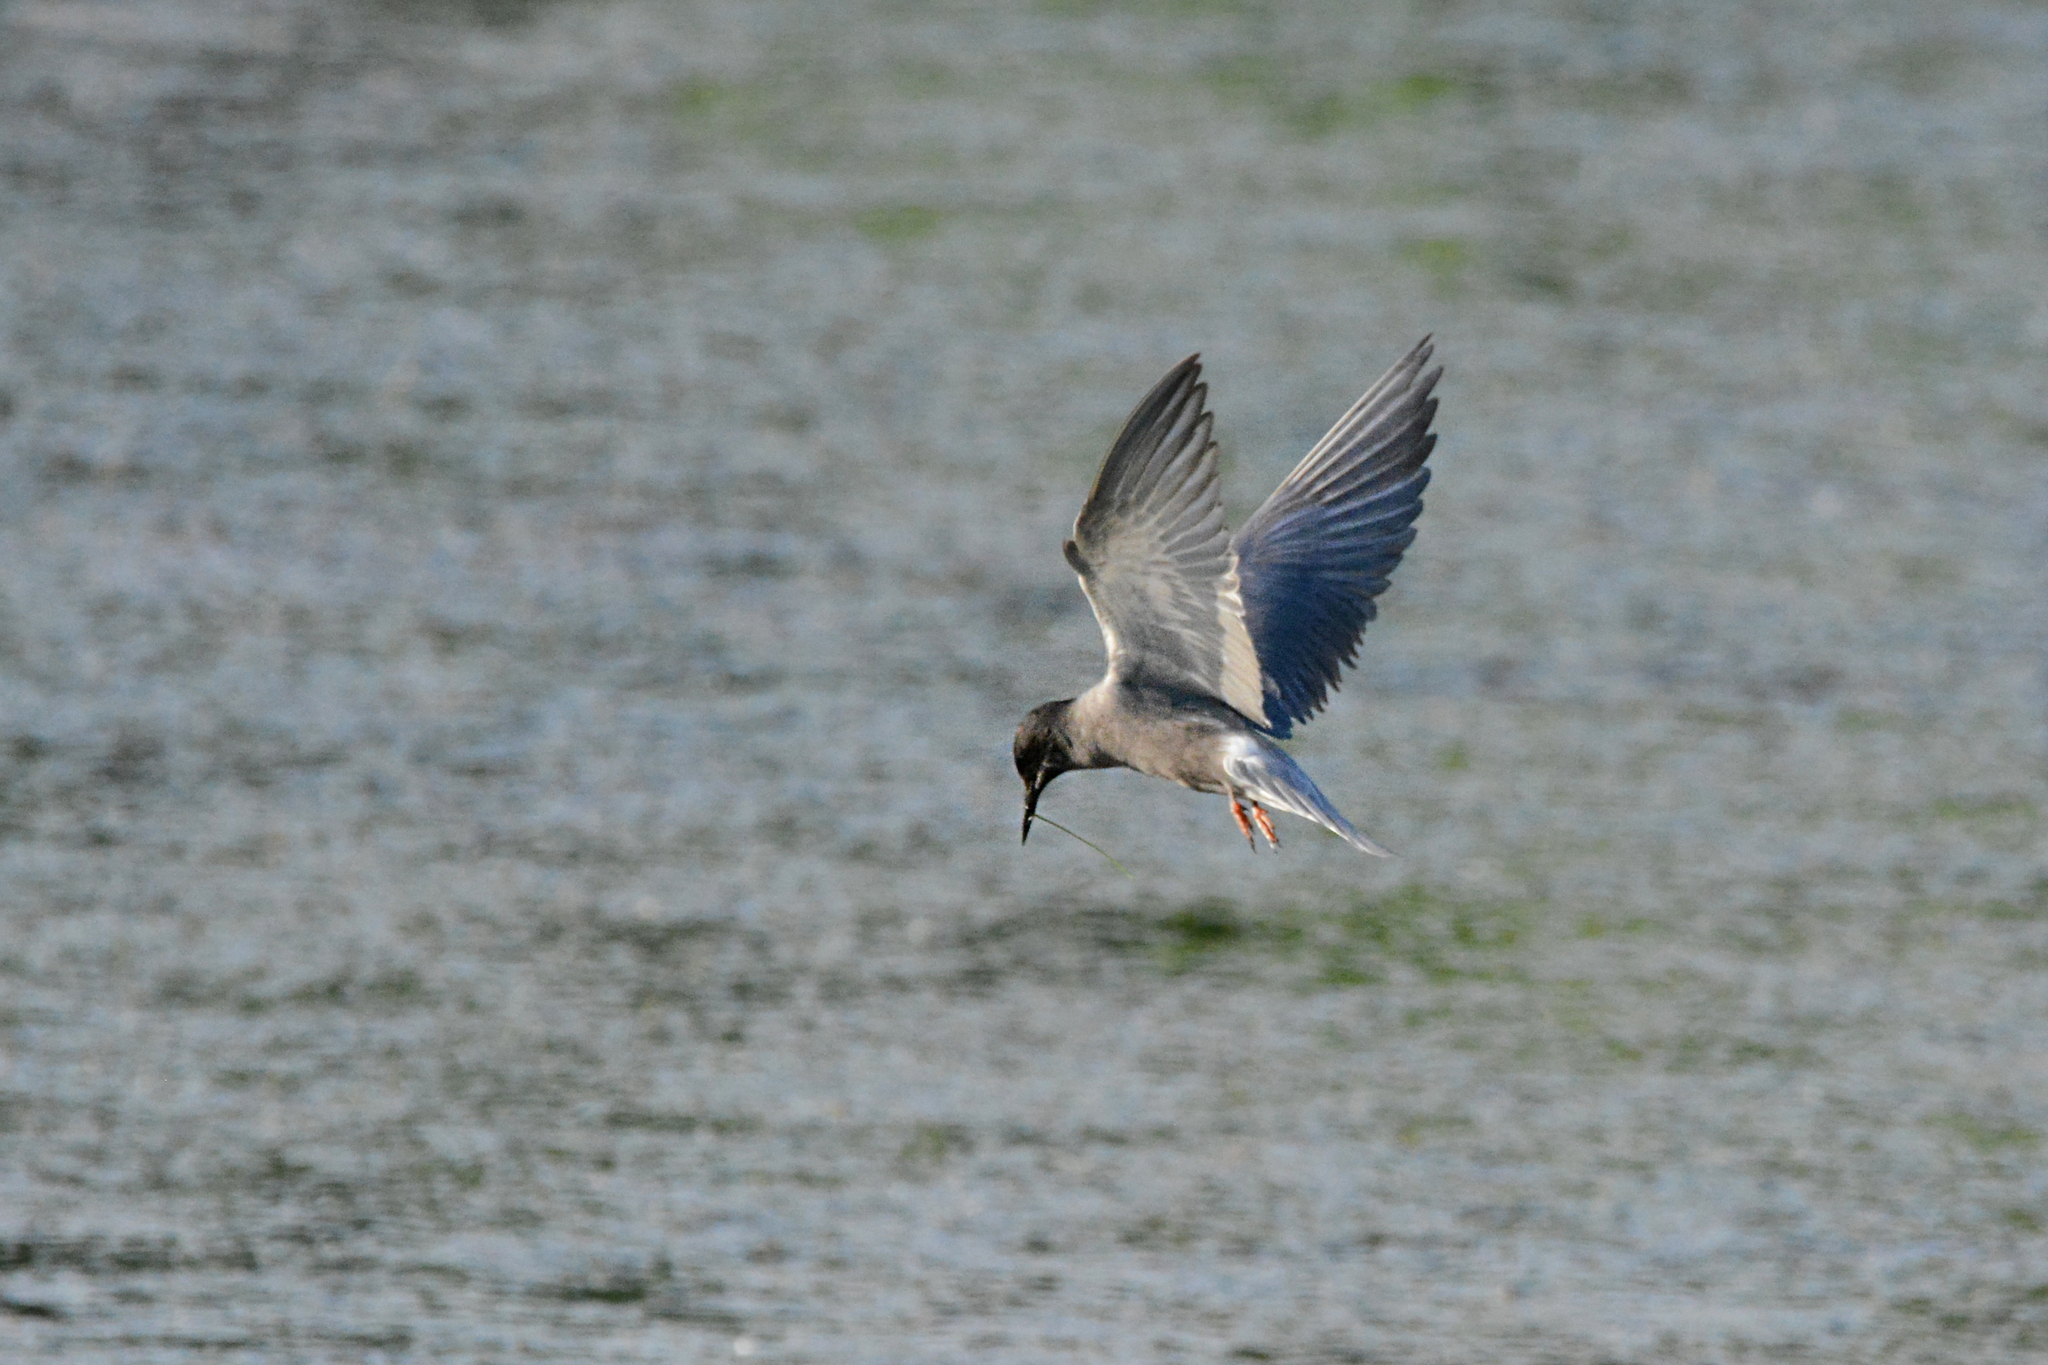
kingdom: Animalia
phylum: Chordata
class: Aves
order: Charadriiformes
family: Laridae
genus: Chlidonias
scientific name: Chlidonias niger
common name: Black tern
